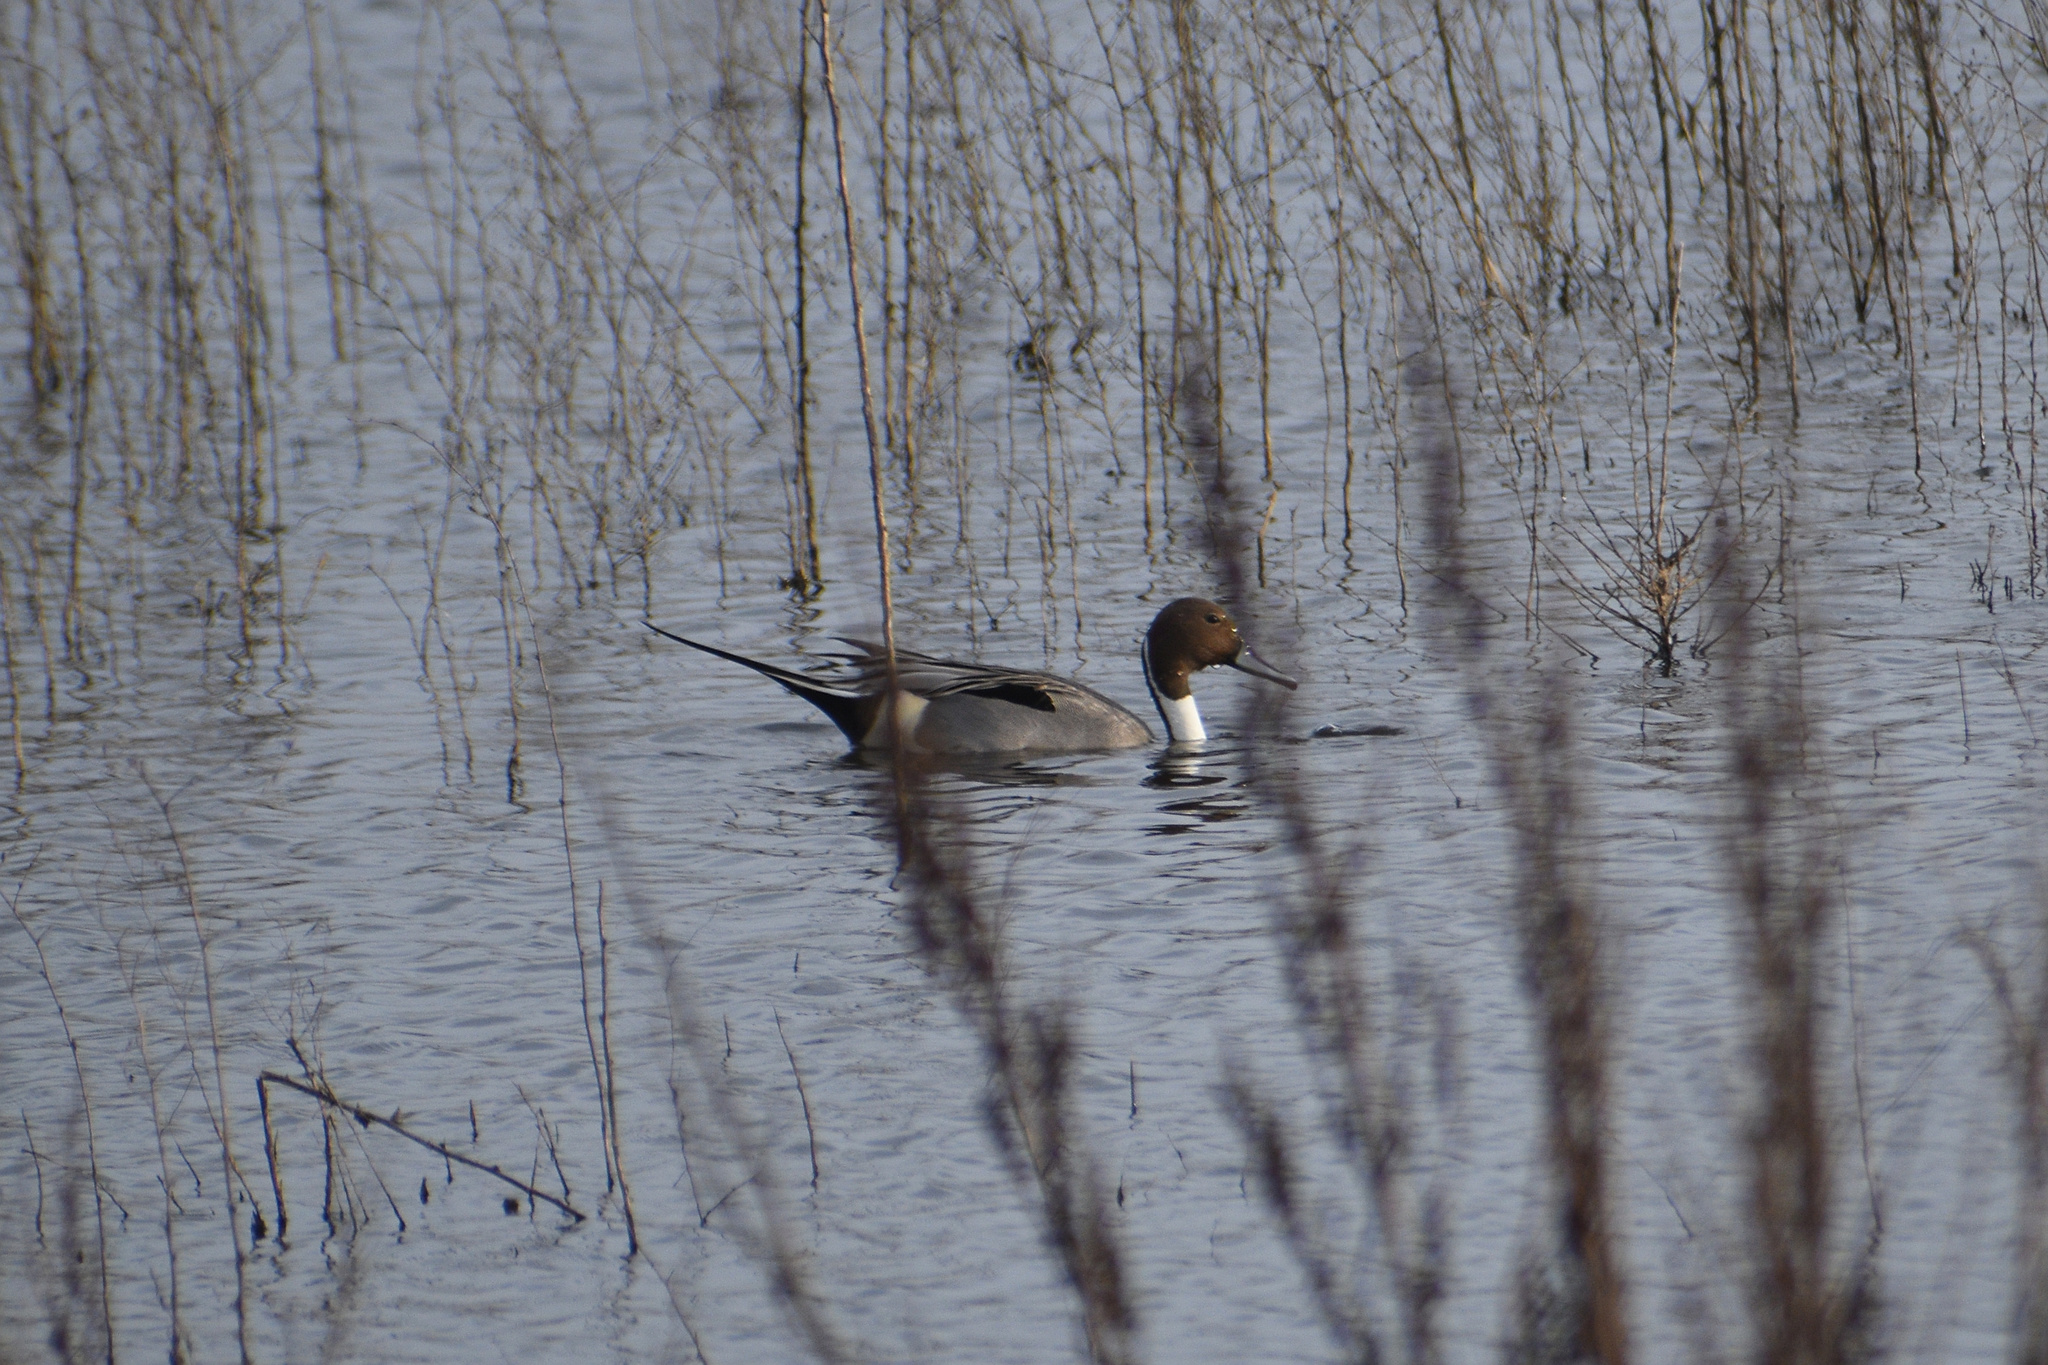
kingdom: Animalia
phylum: Chordata
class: Aves
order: Anseriformes
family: Anatidae
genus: Anas
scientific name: Anas acuta
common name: Northern pintail
